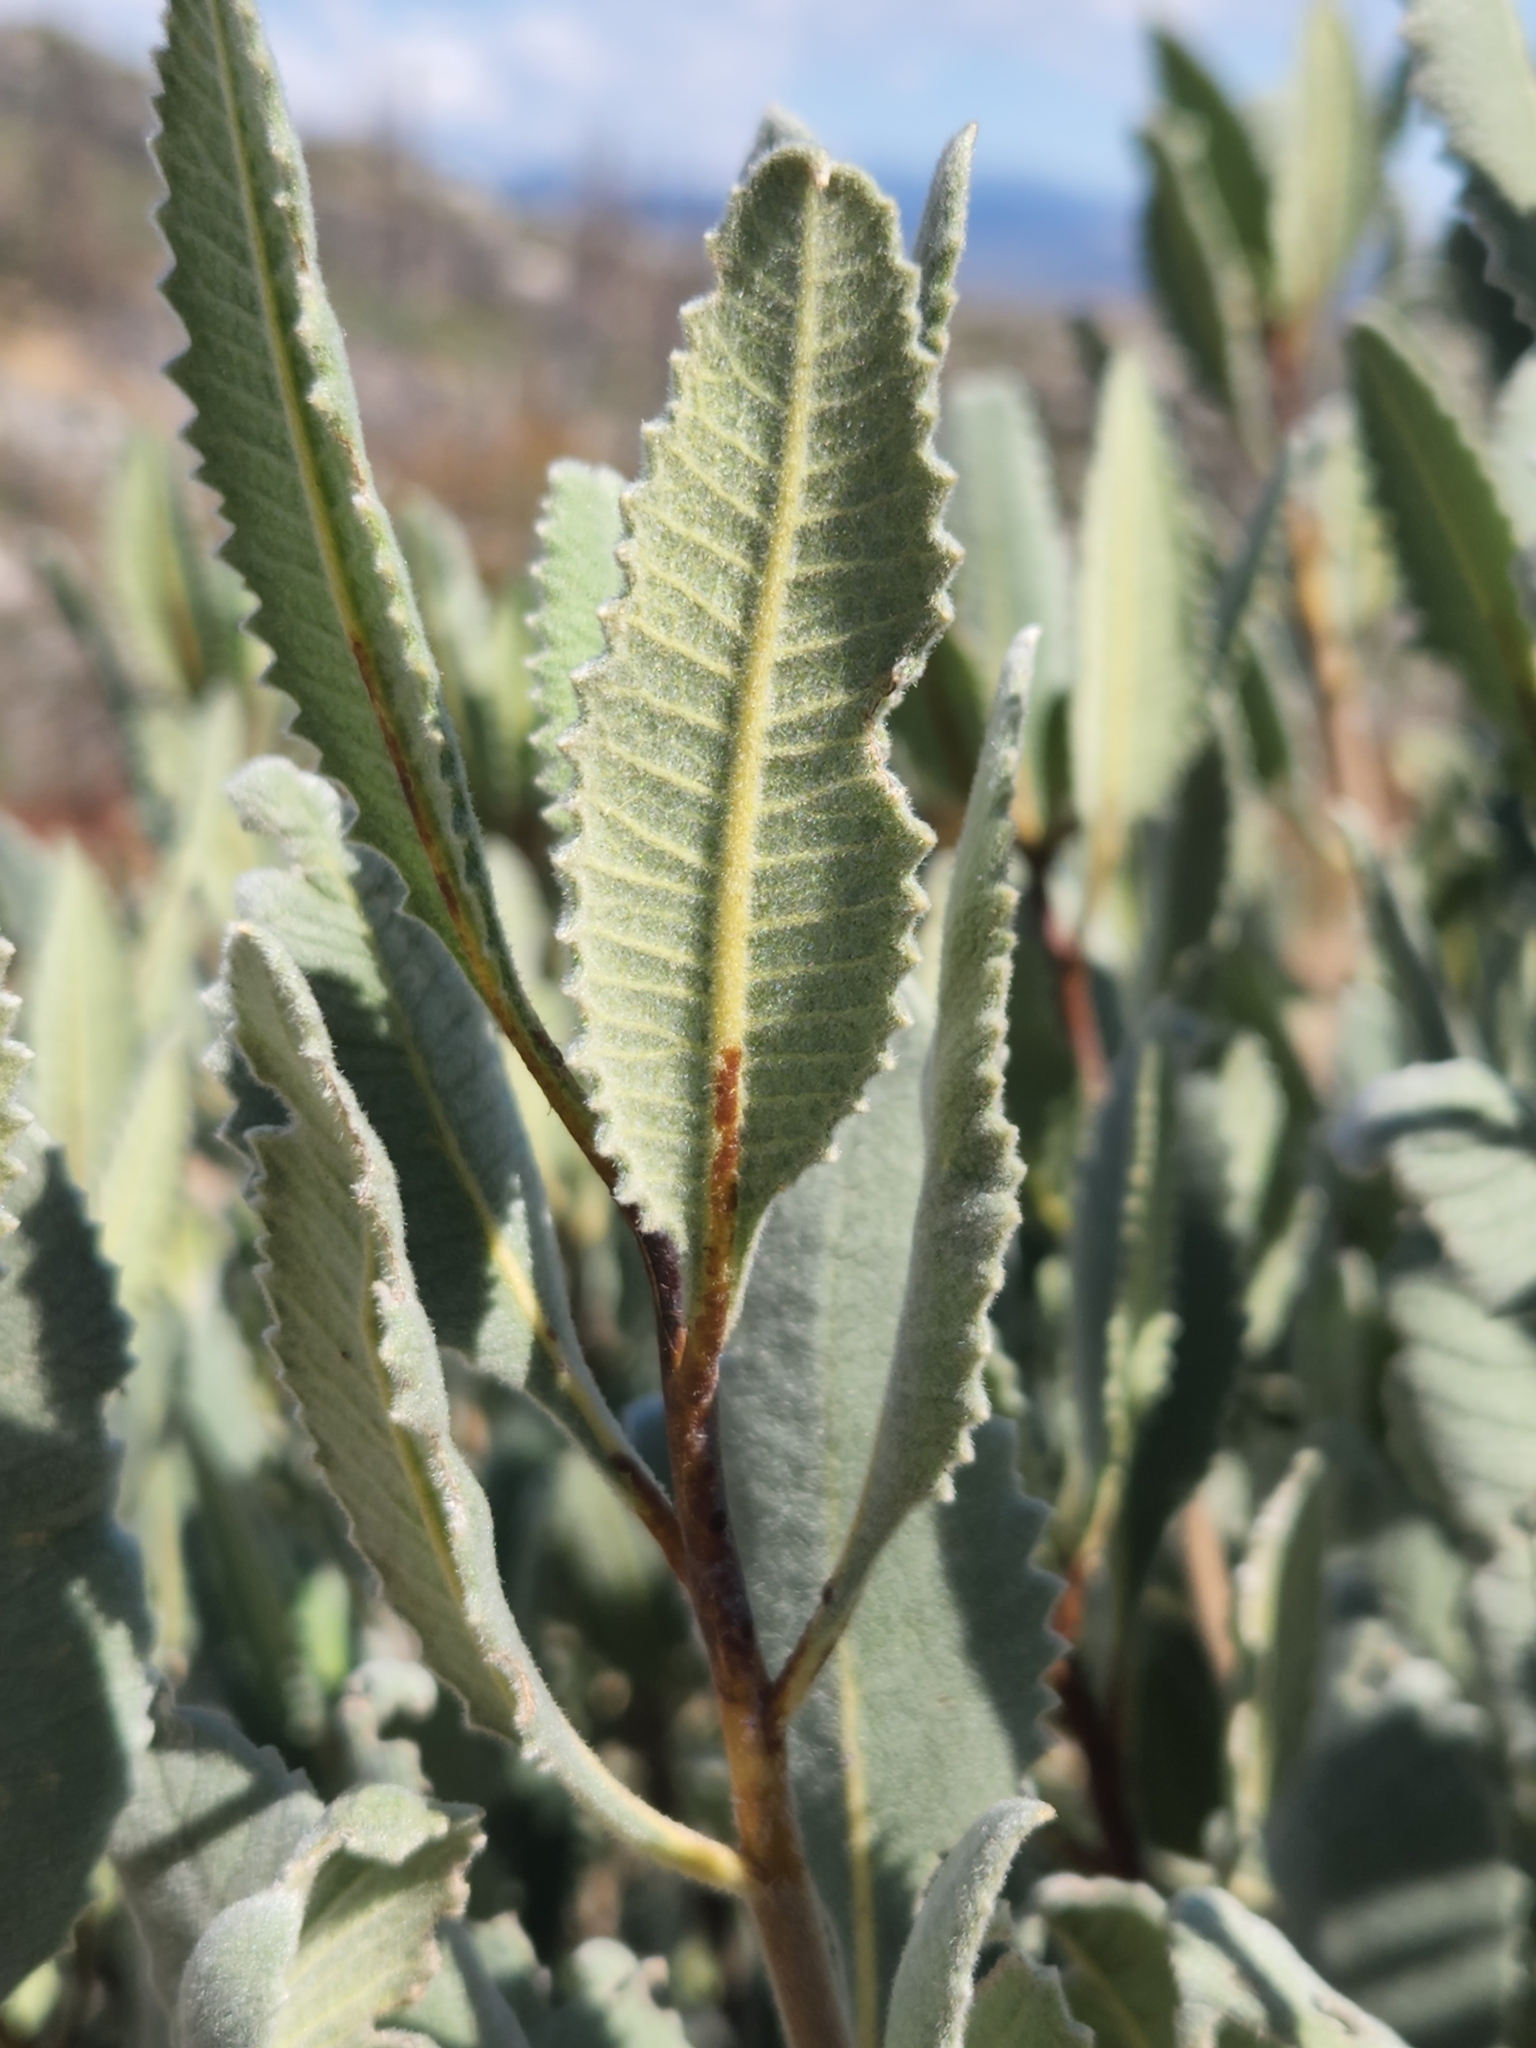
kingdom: Plantae
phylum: Tracheophyta
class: Magnoliopsida
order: Boraginales
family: Namaceae
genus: Eriodictyon
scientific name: Eriodictyon crassifolium
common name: Thick-leaf yerba-santa
